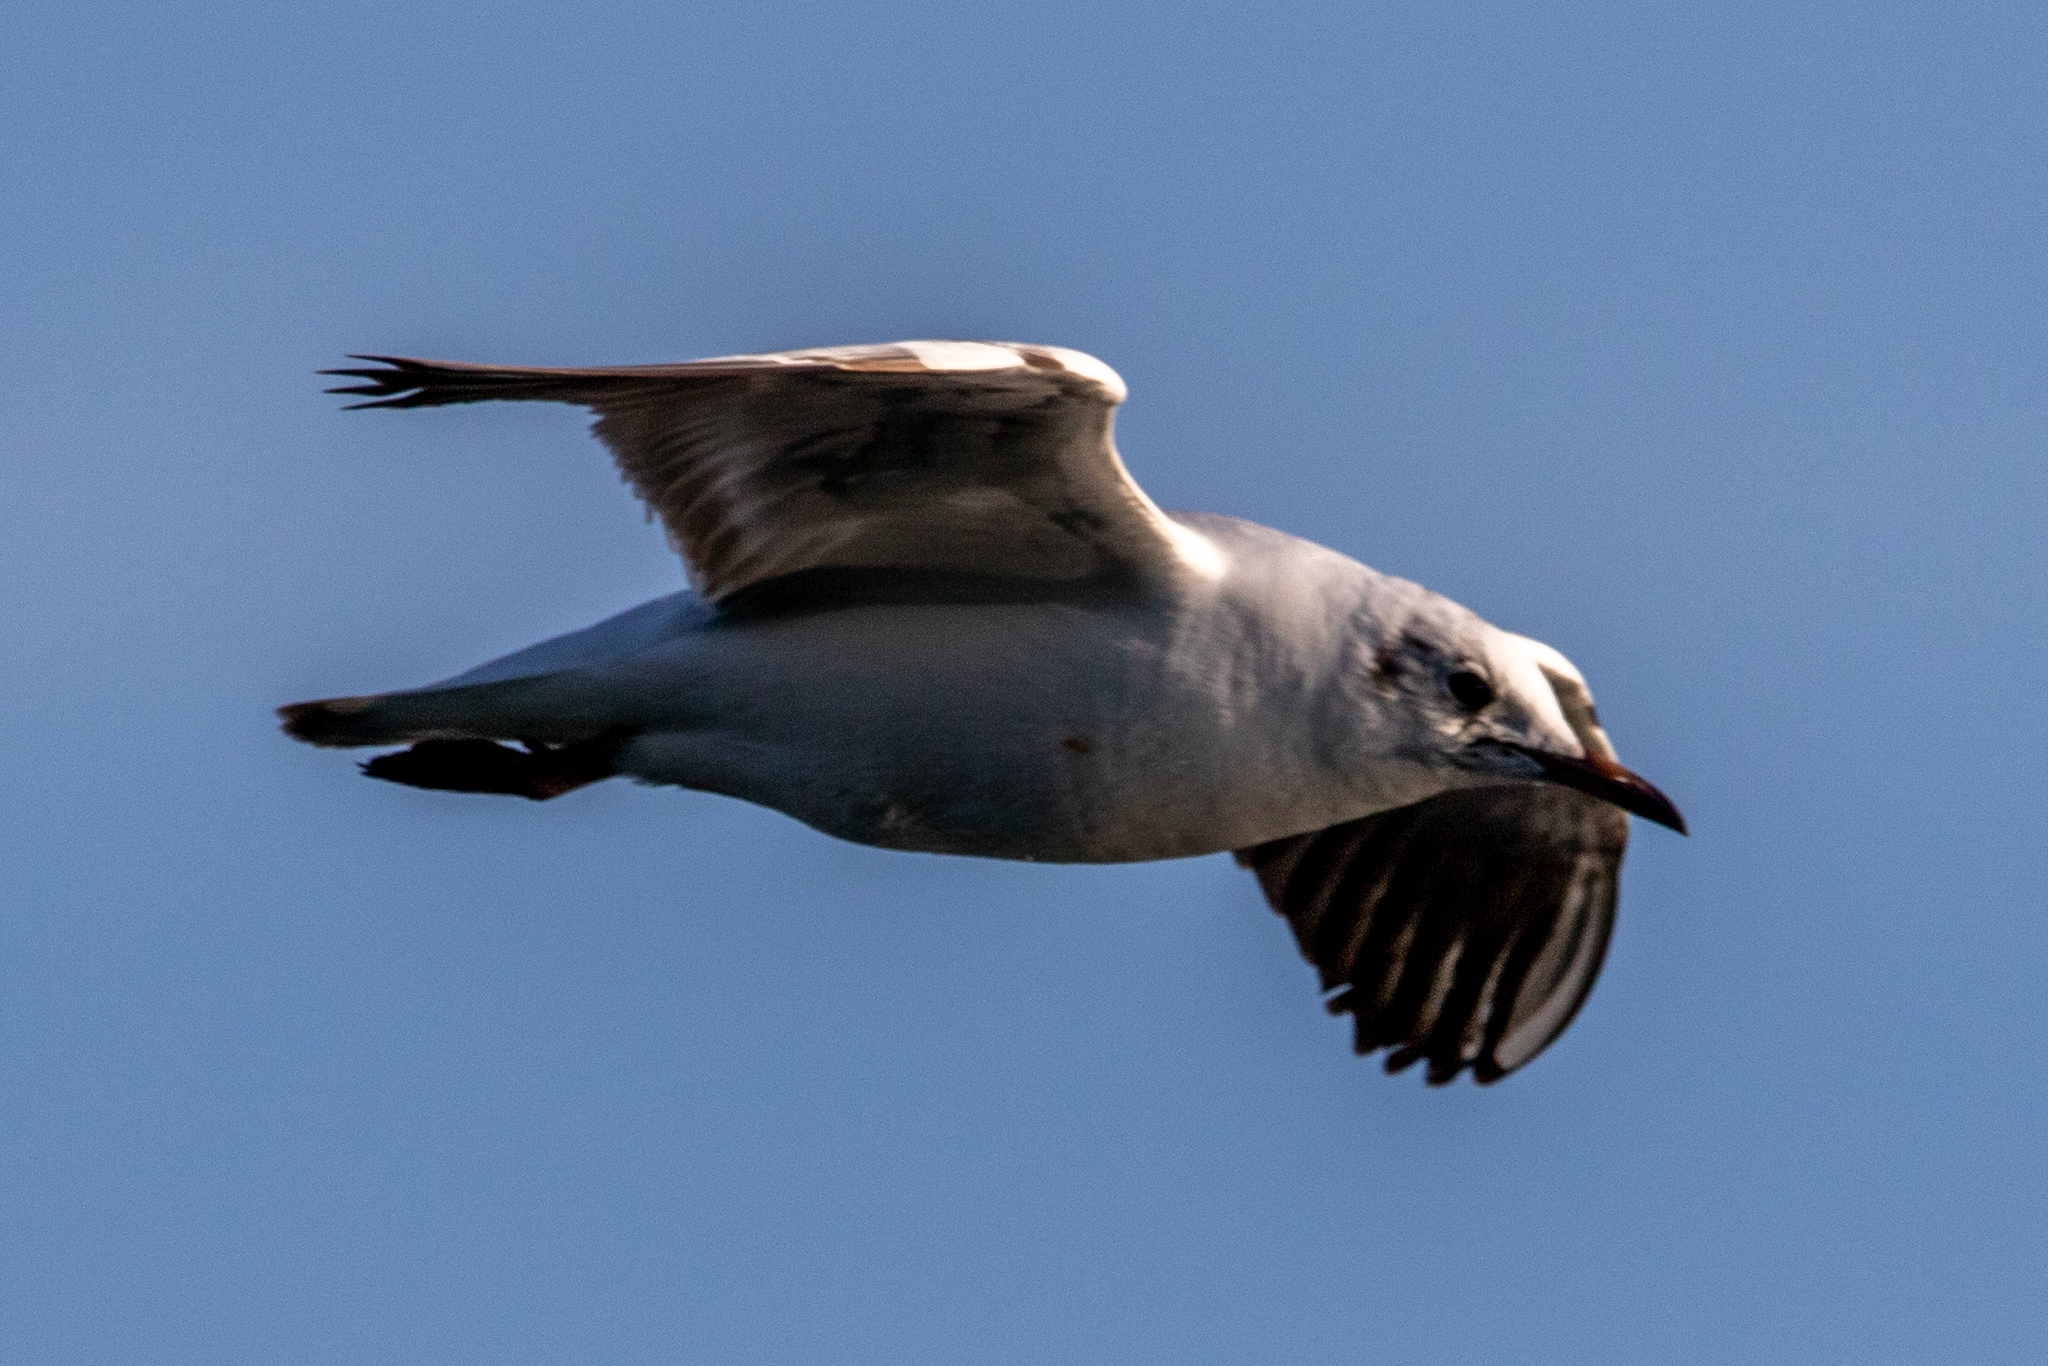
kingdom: Animalia
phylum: Chordata
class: Aves
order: Charadriiformes
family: Laridae
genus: Chroicocephalus
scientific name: Chroicocephalus ridibundus
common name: Black-headed gull
